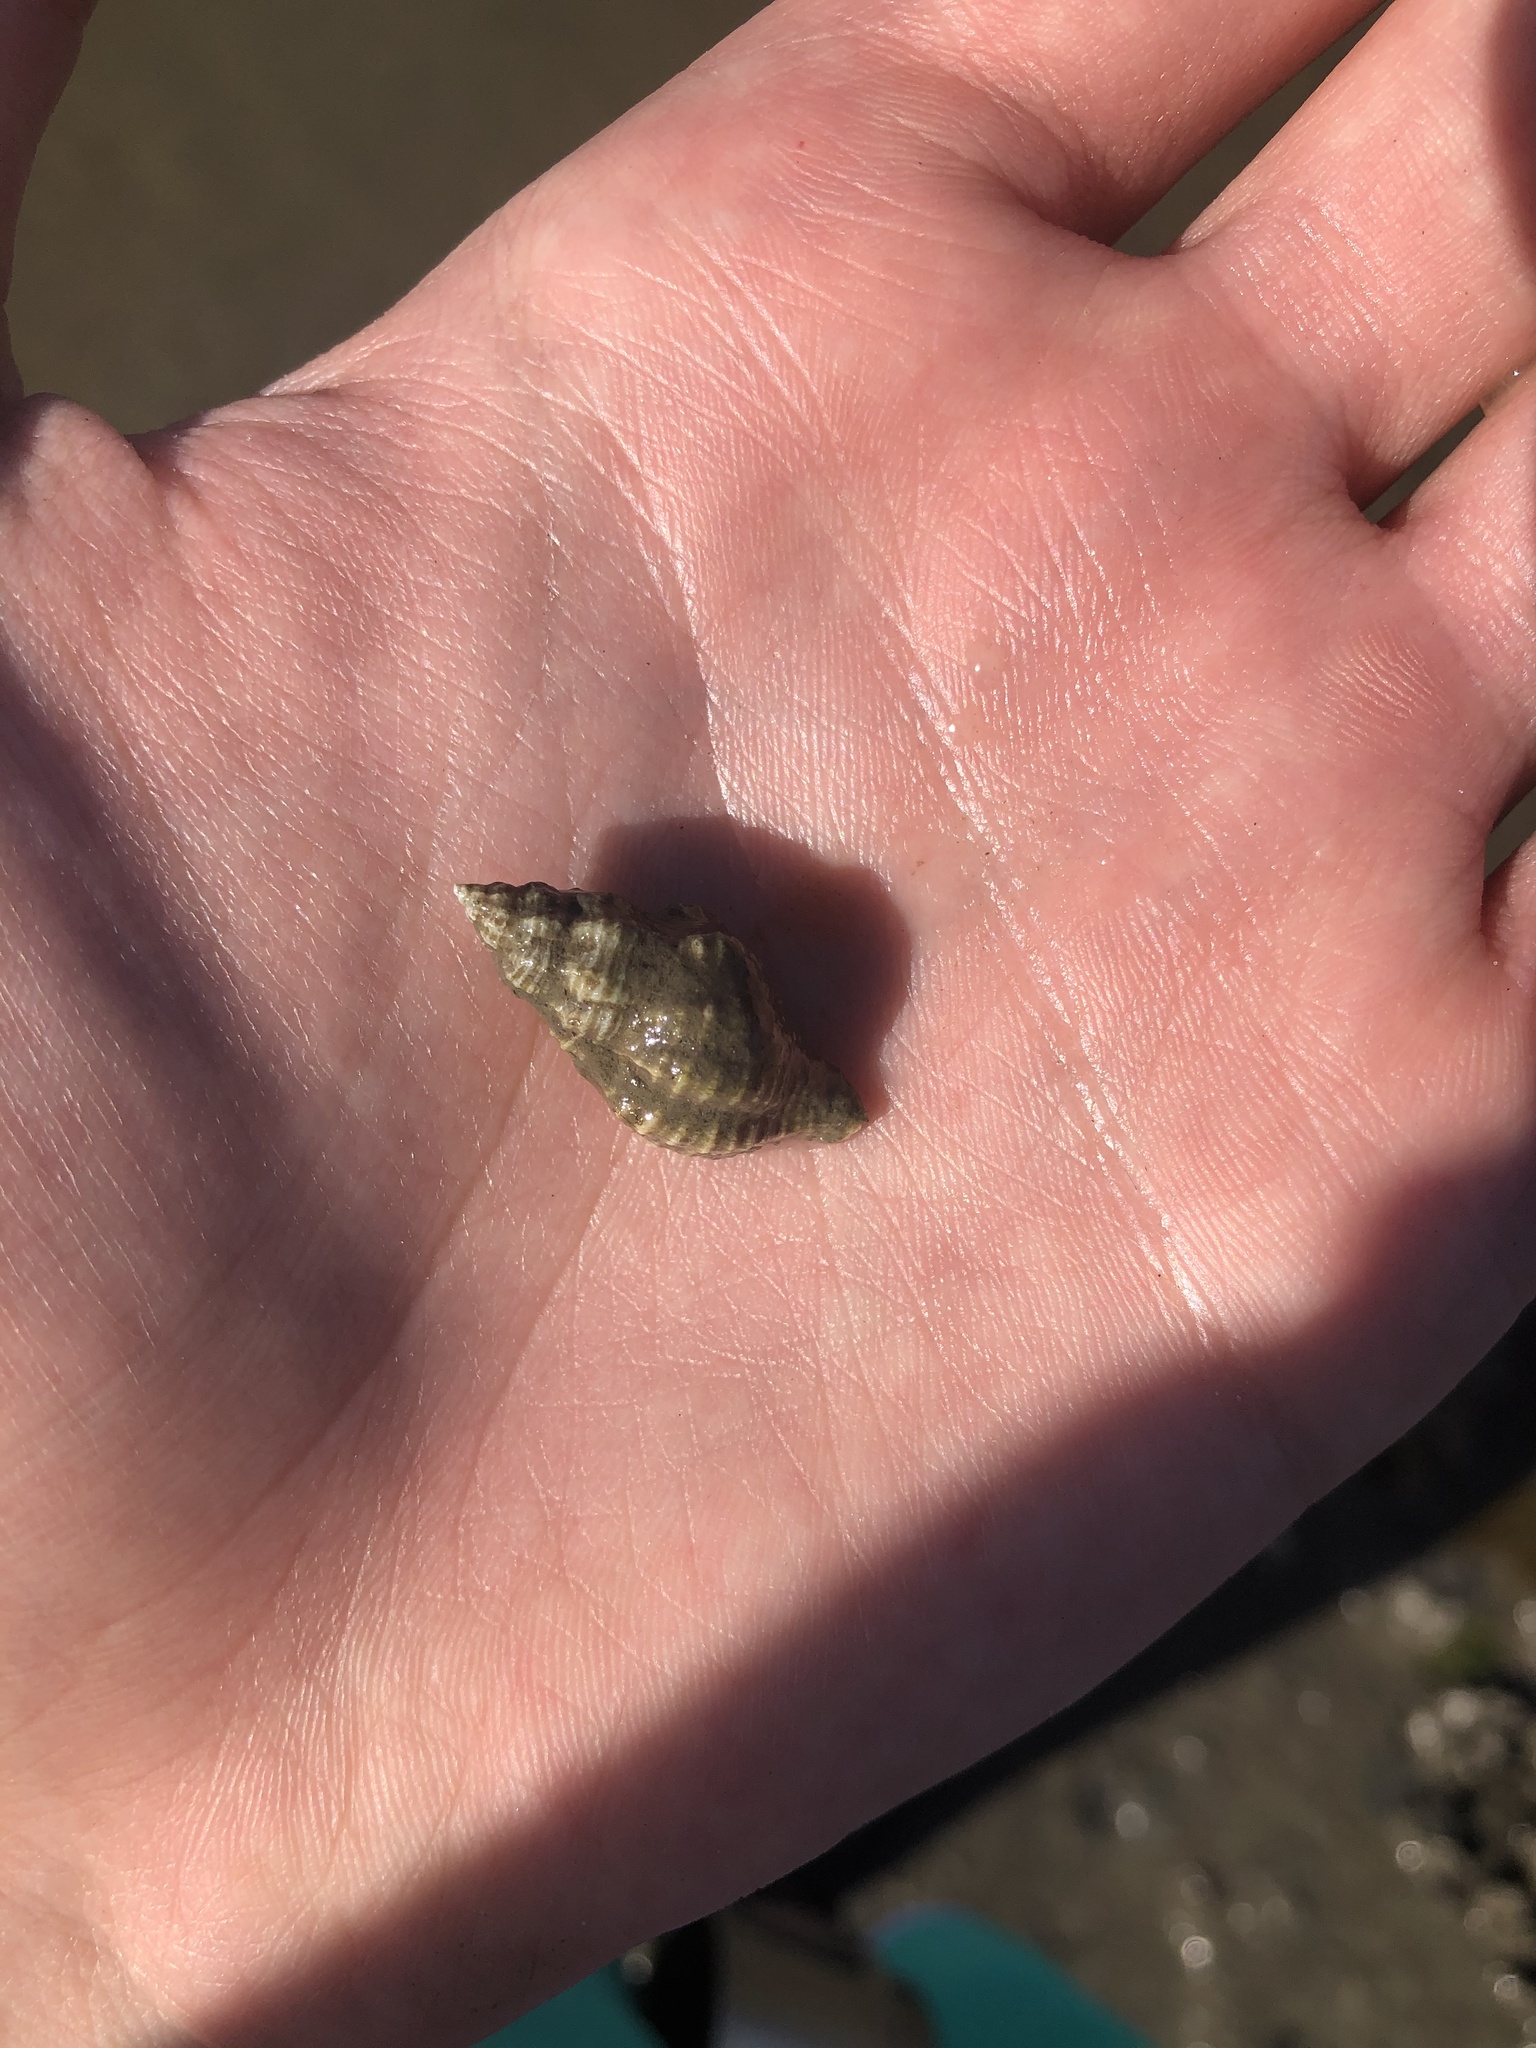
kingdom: Animalia
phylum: Mollusca
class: Gastropoda
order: Neogastropoda
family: Muricidae
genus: Urosalpinx
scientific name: Urosalpinx cinerea
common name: American sting winkle
